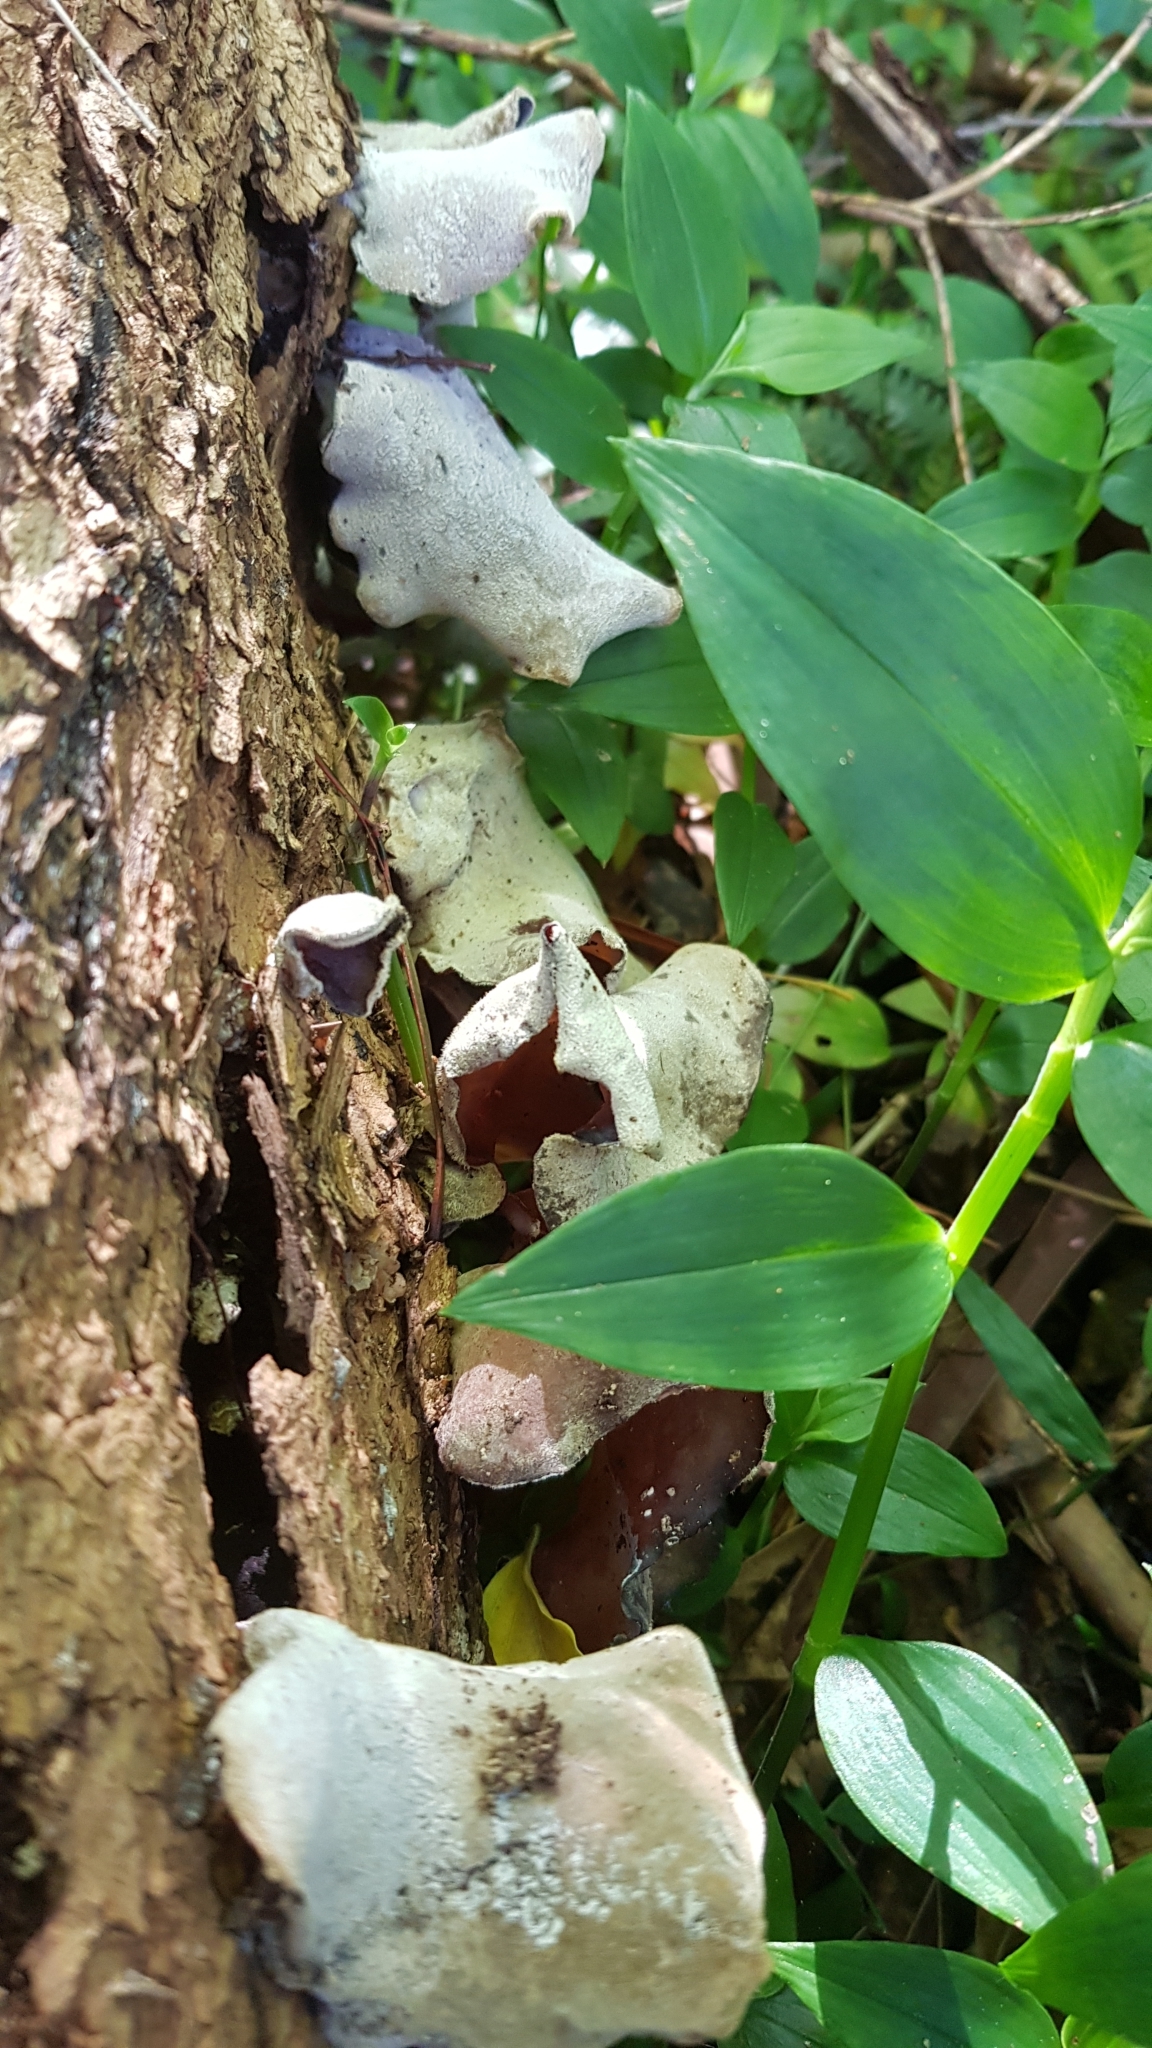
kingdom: Fungi
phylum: Basidiomycota
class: Agaricomycetes
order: Auriculariales
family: Auriculariaceae
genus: Auricularia
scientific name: Auricularia cornea
